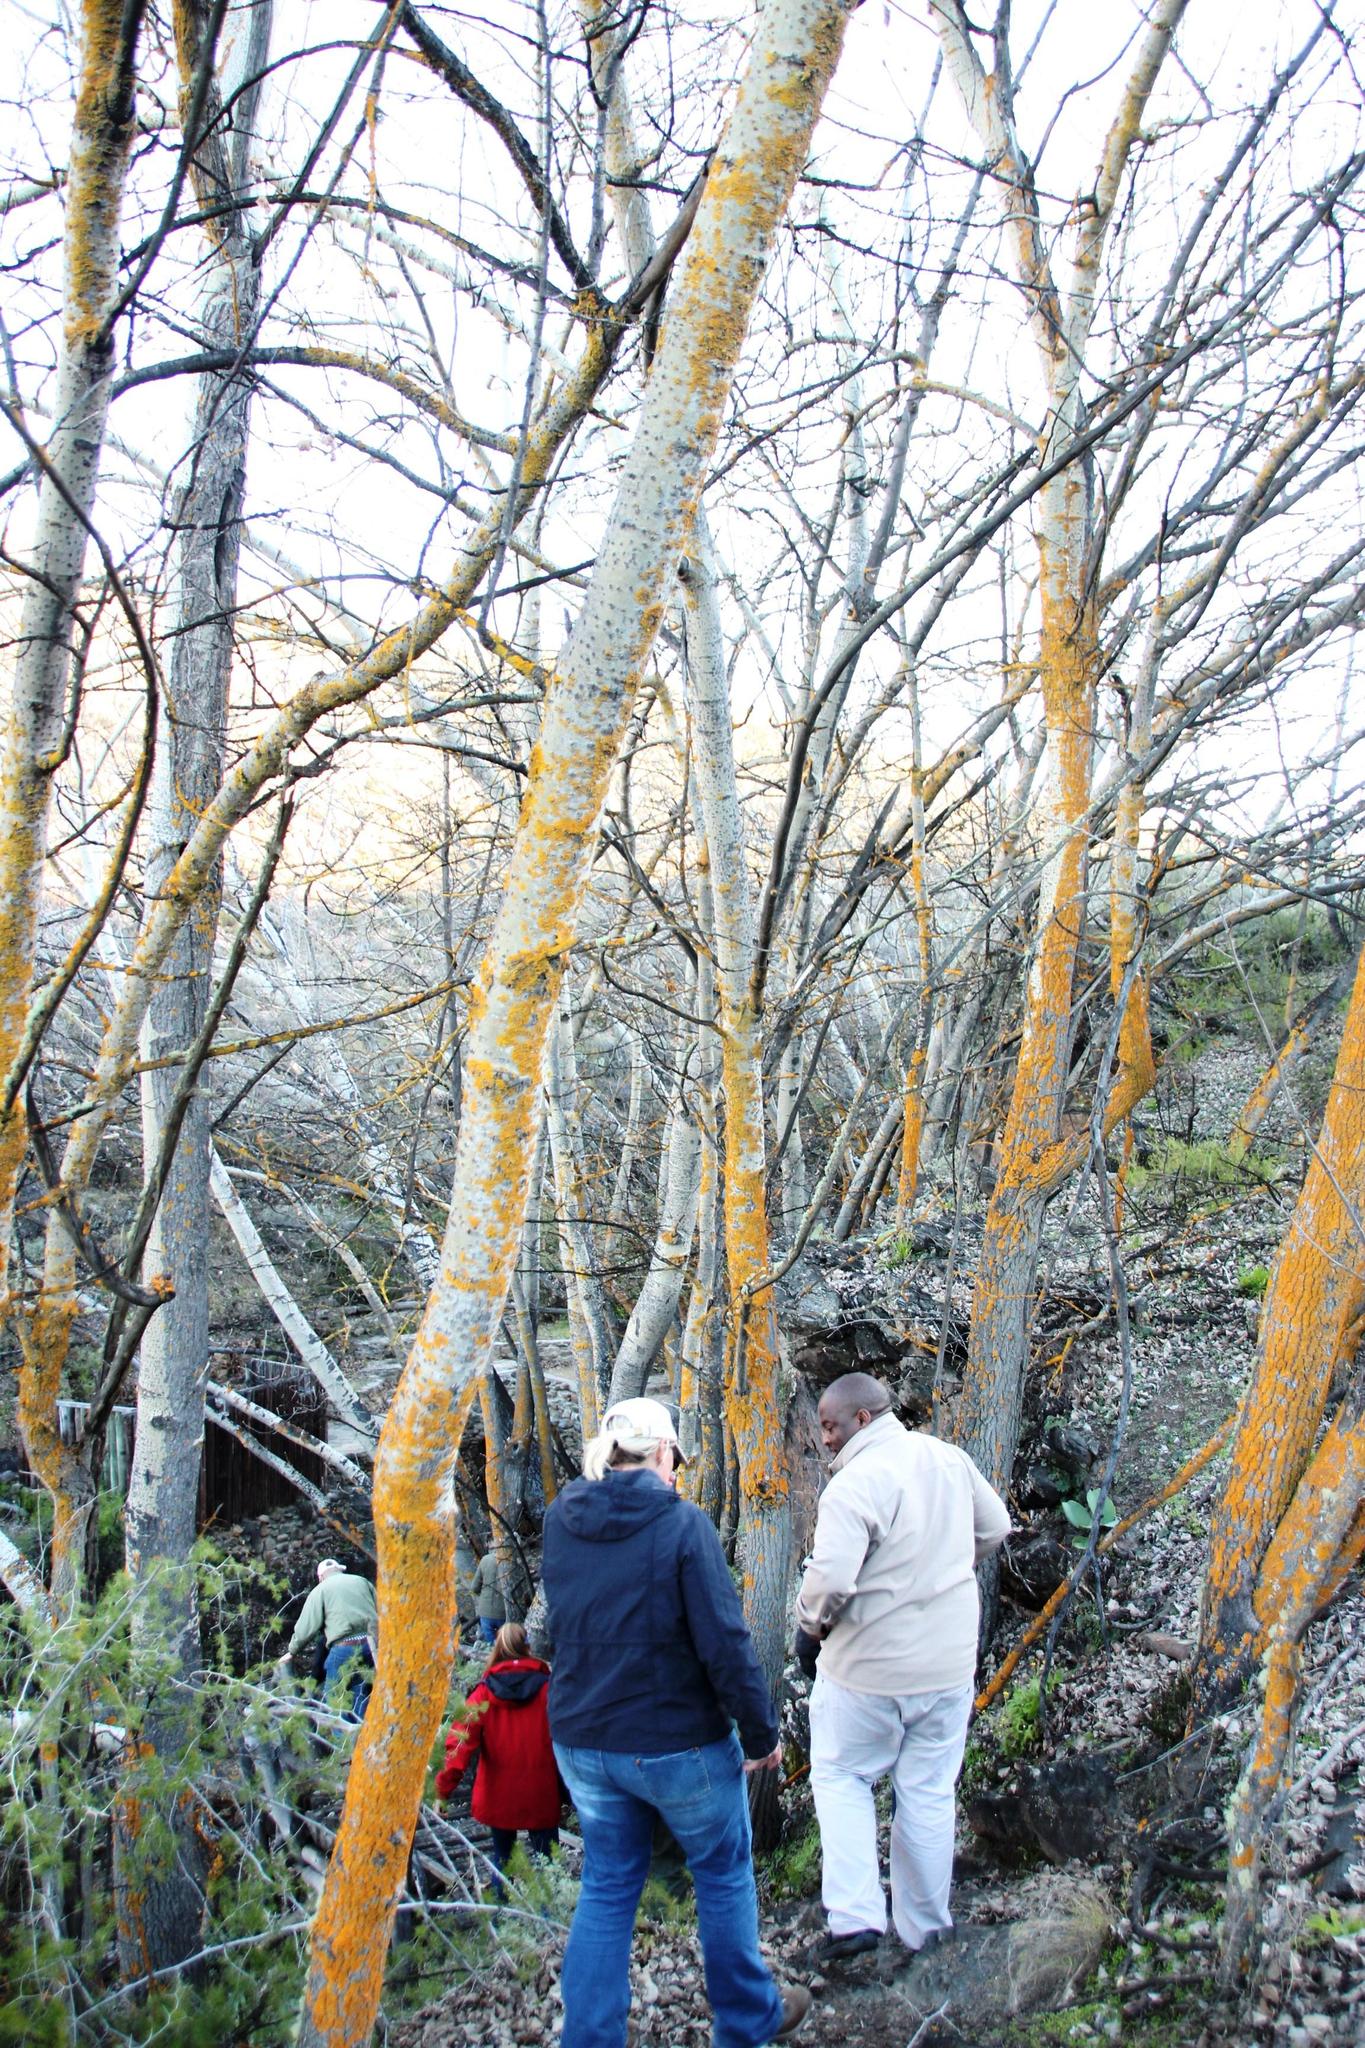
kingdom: Plantae
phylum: Tracheophyta
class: Magnoliopsida
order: Malpighiales
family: Salicaceae
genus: Populus
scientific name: Populus canescens
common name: Gray poplar
